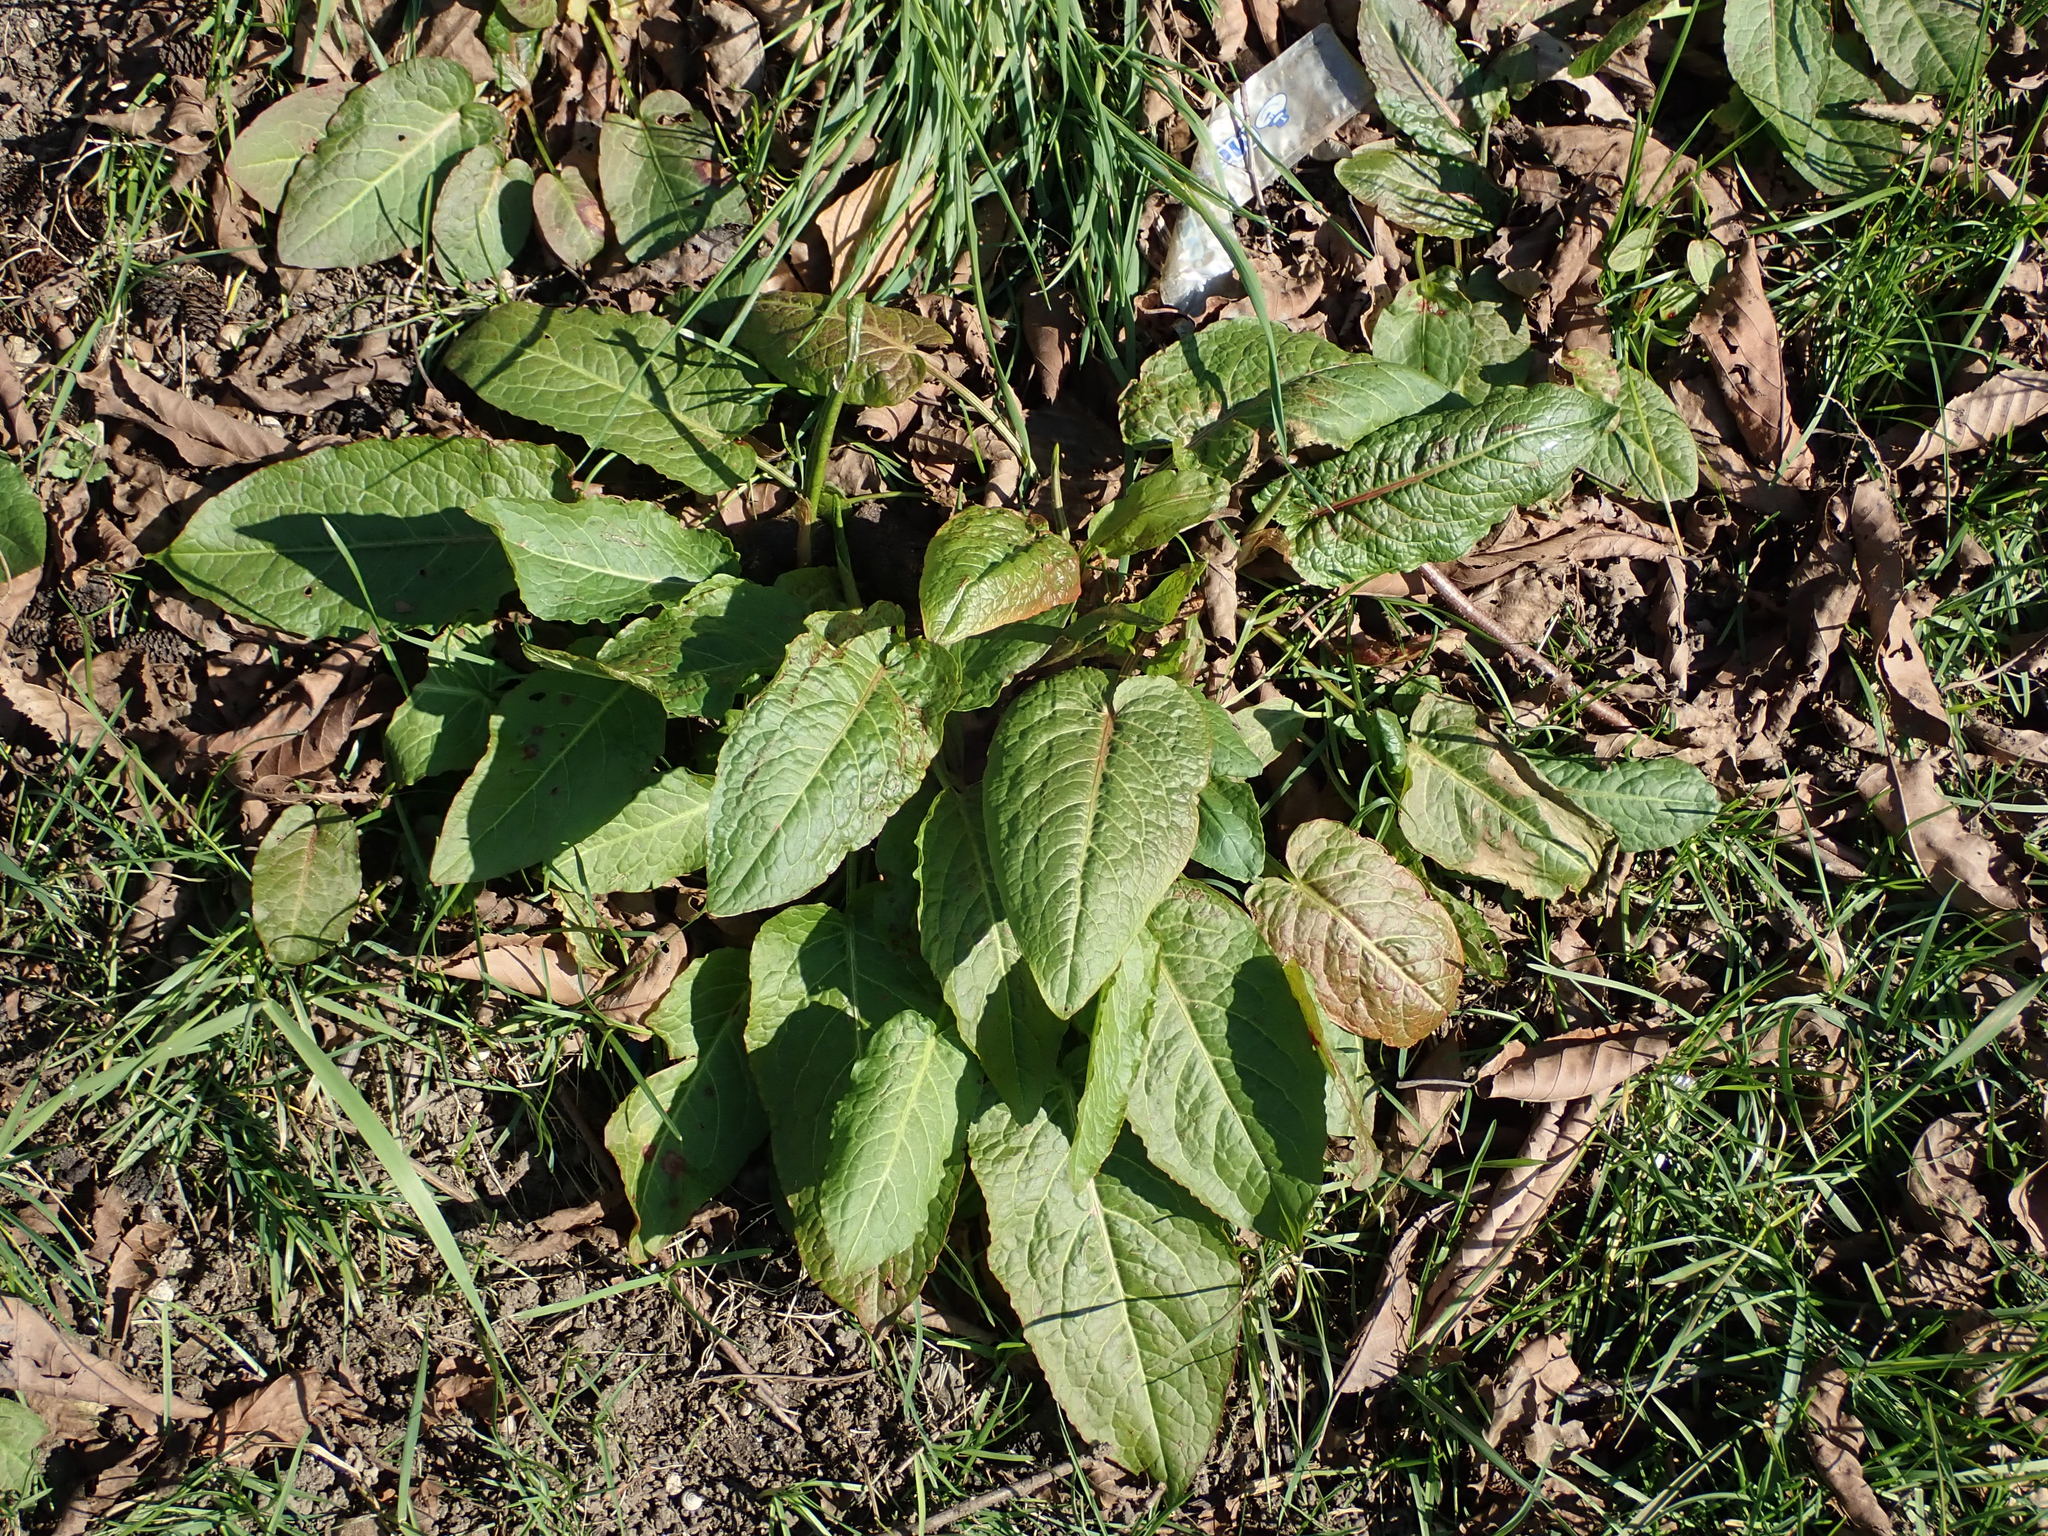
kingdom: Plantae
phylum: Tracheophyta
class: Magnoliopsida
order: Caryophyllales
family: Polygonaceae
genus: Rumex
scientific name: Rumex obtusifolius
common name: Bitter dock
